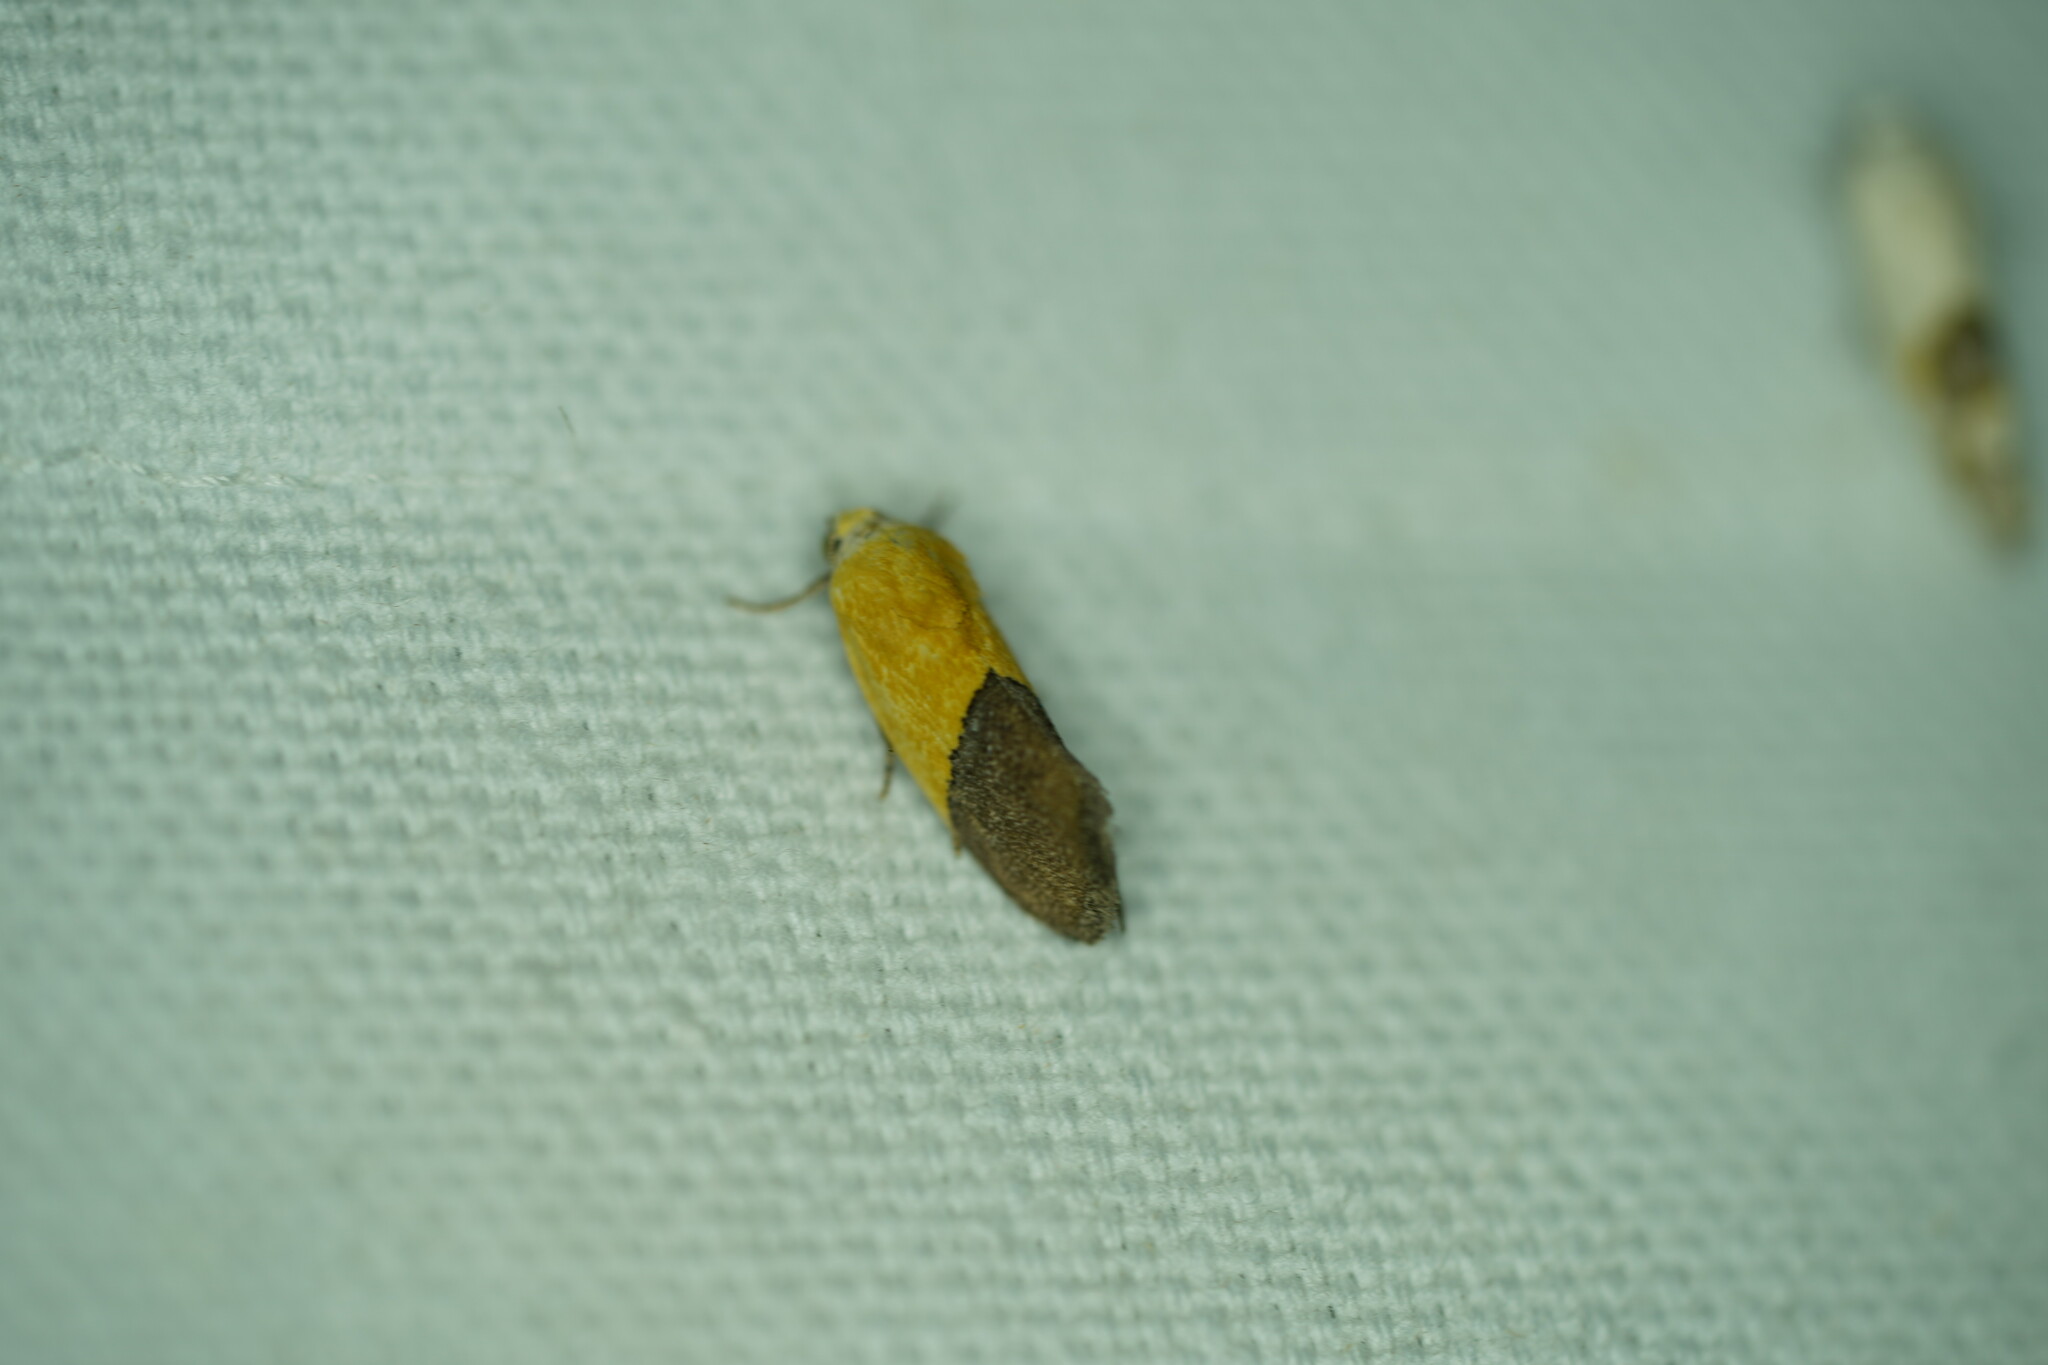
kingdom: Animalia
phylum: Arthropoda
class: Insecta
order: Lepidoptera
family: Noctuidae
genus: Acontia
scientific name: Acontia semiflava
